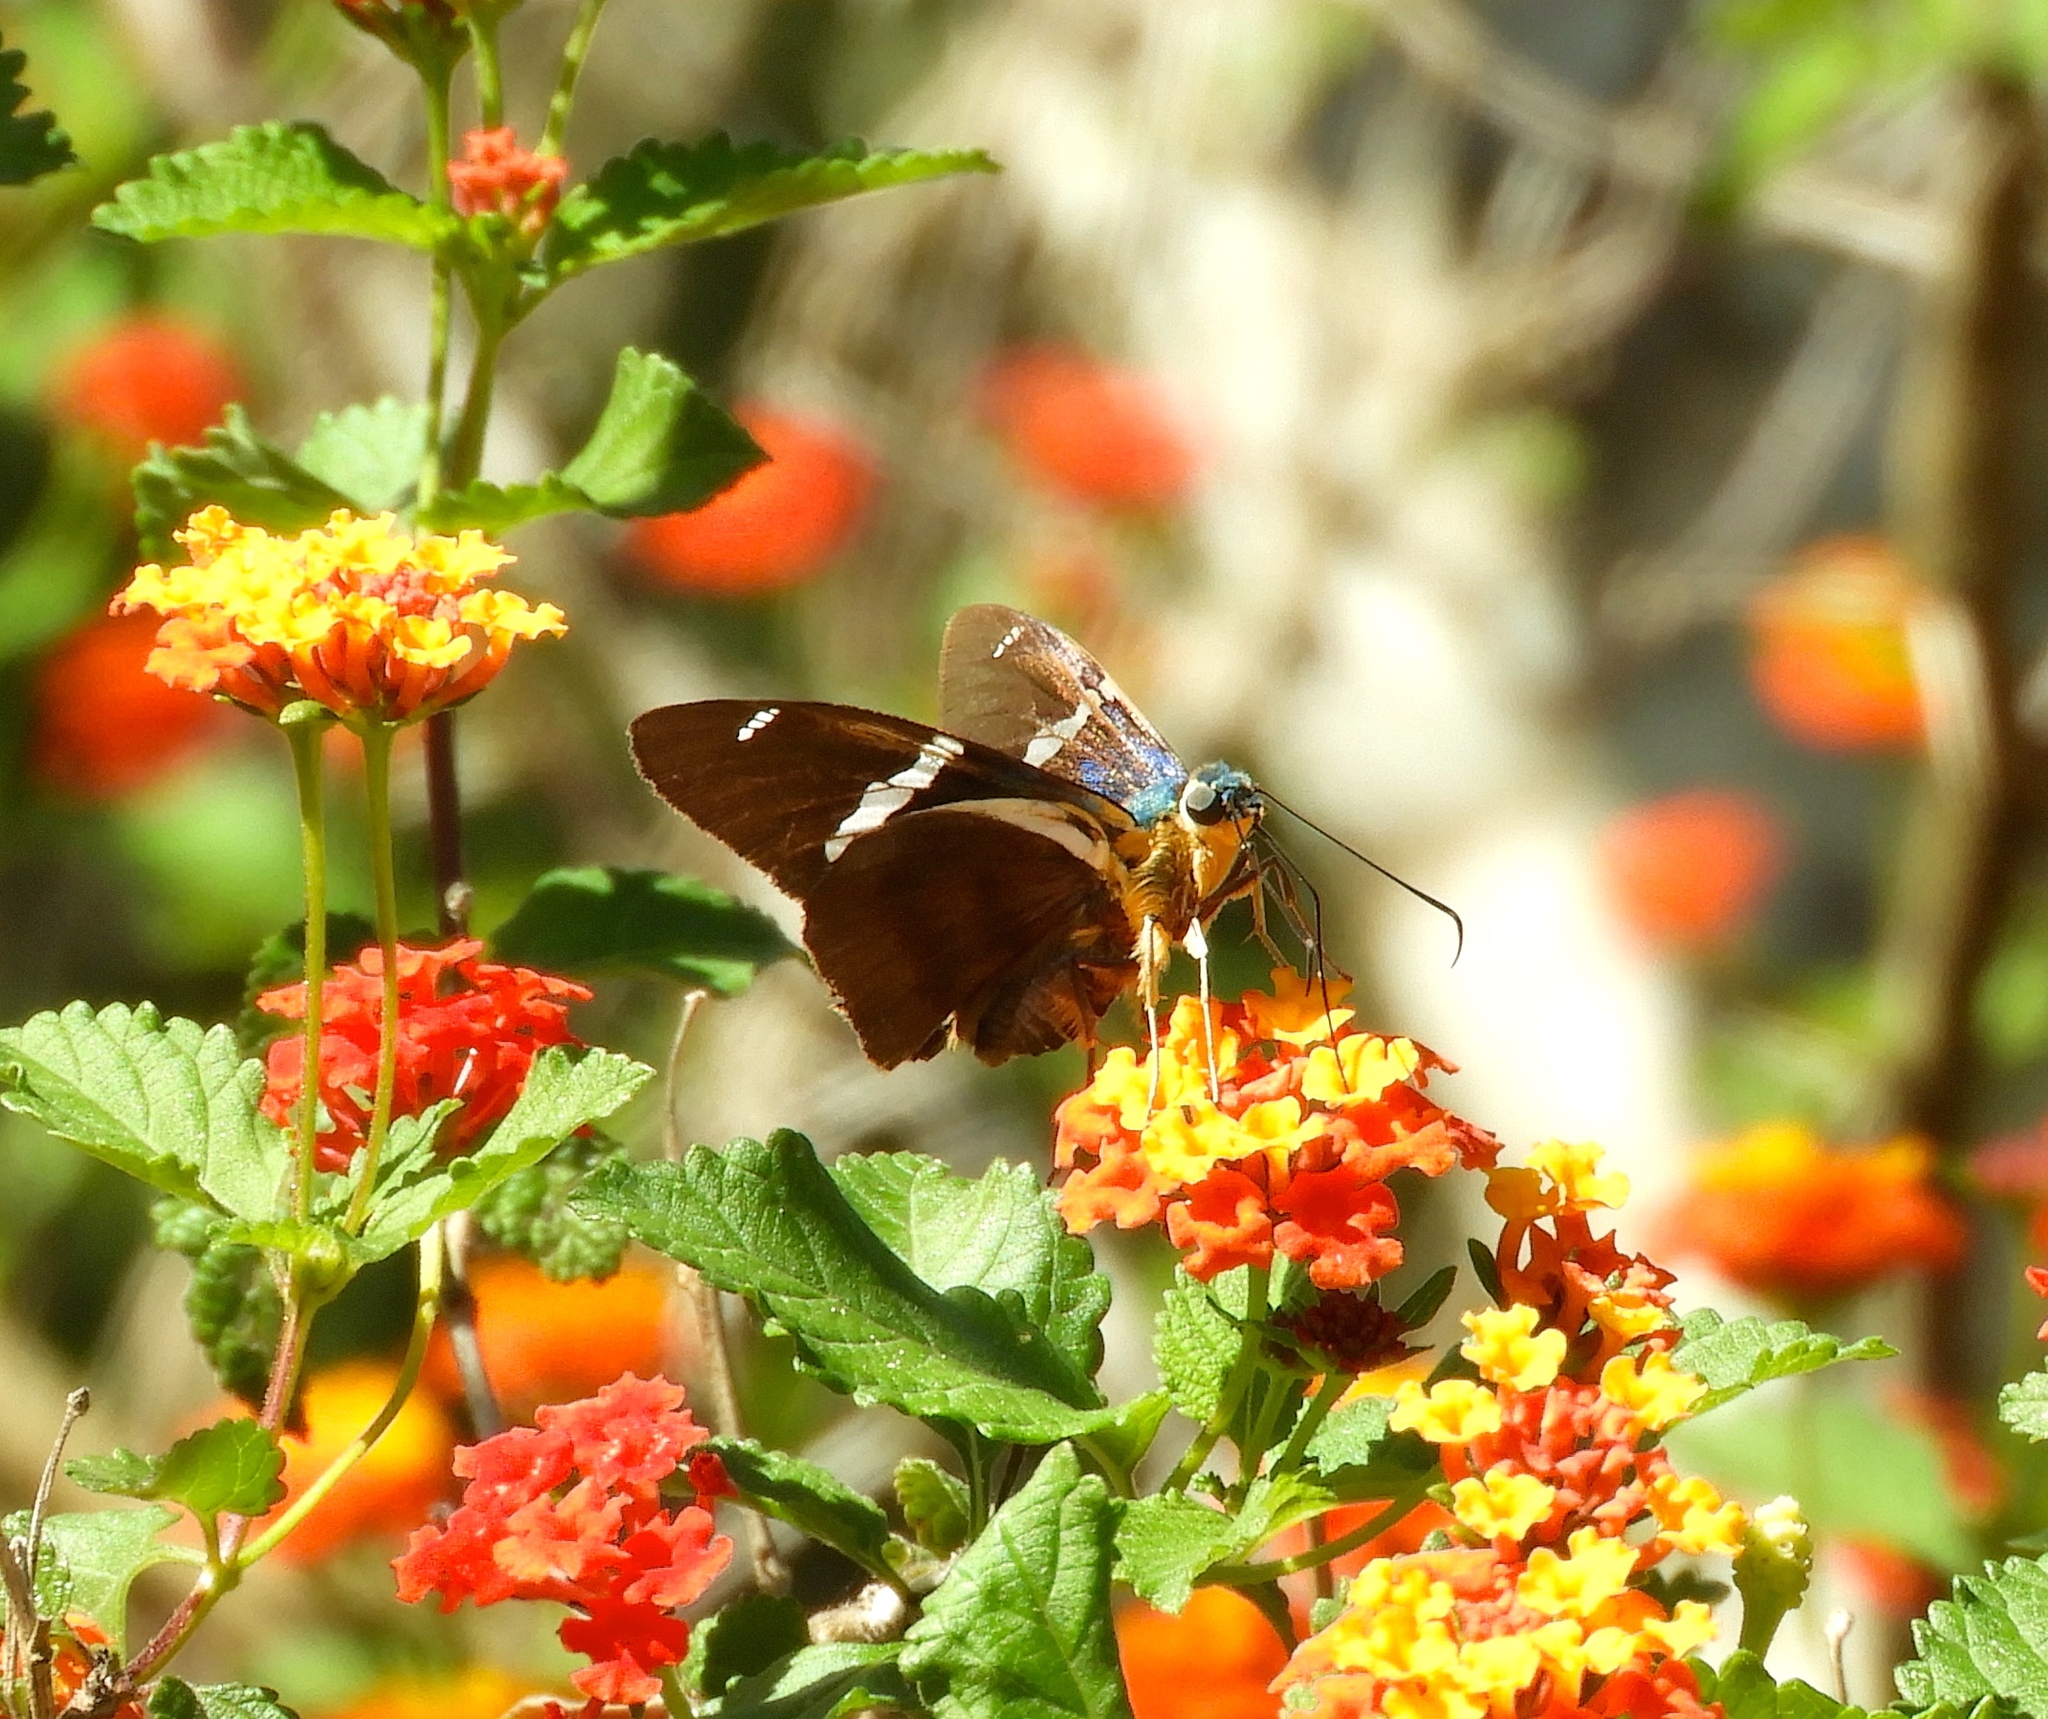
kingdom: Animalia
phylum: Arthropoda
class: Insecta
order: Lepidoptera
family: Hesperiidae
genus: Astraptes
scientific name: Astraptes fulgerator
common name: Two-barred flasher
